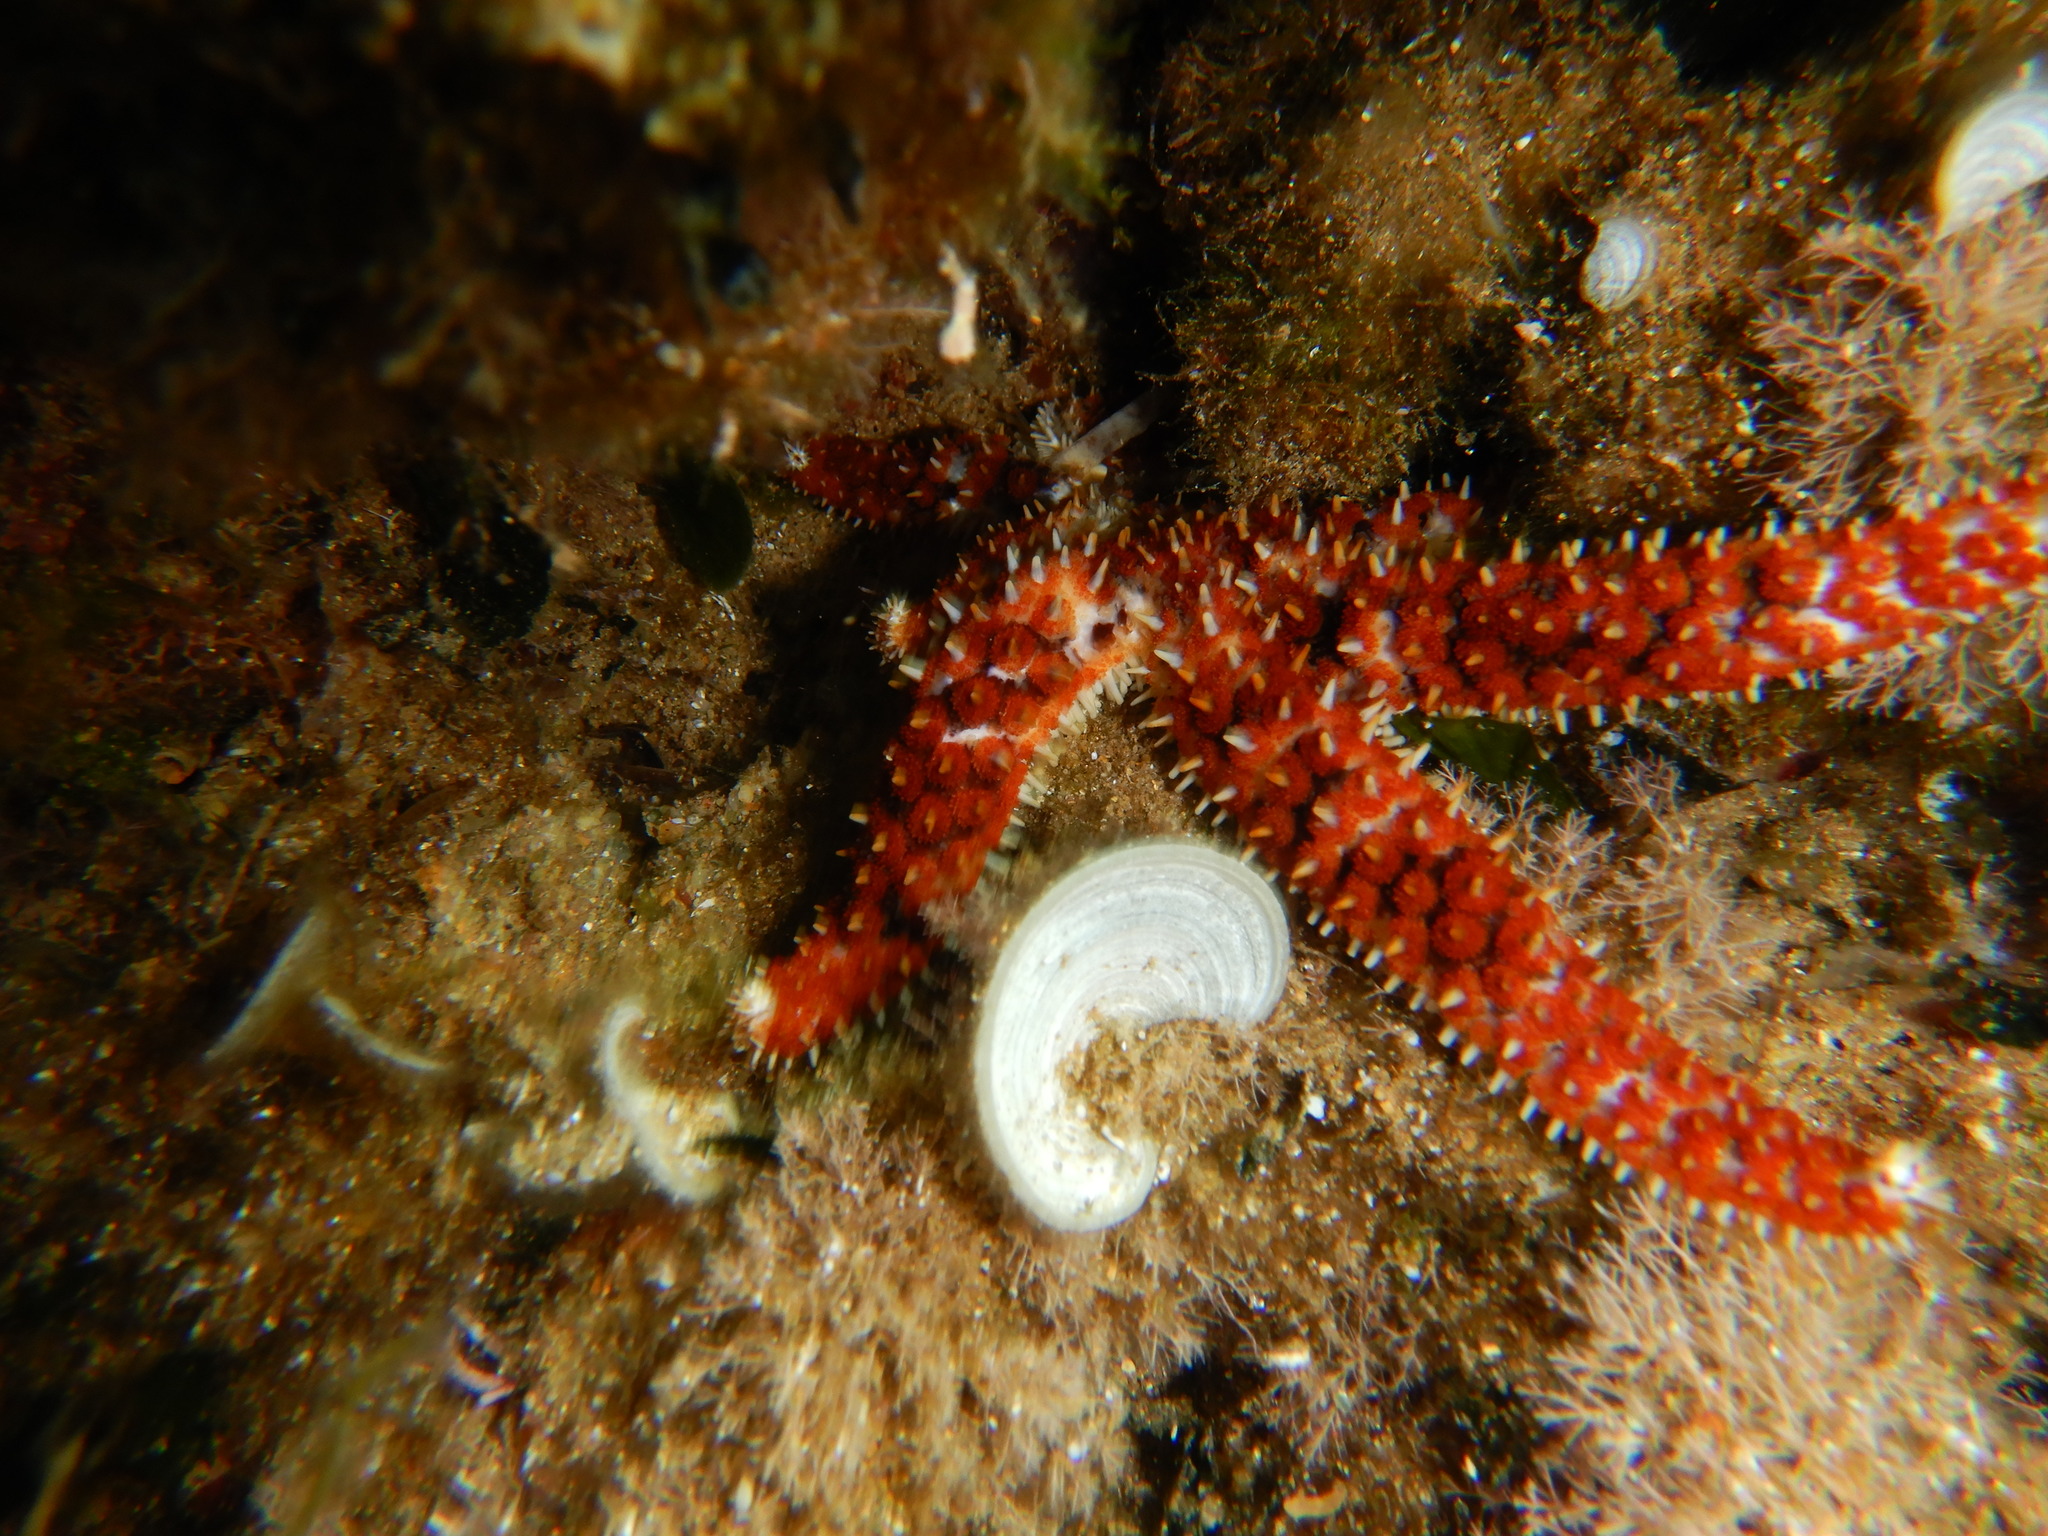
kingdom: Animalia
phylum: Echinodermata
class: Asteroidea
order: Forcipulatida
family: Asteriidae
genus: Coscinasterias
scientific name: Coscinasterias tenuispina
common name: Blue spiny starfish
